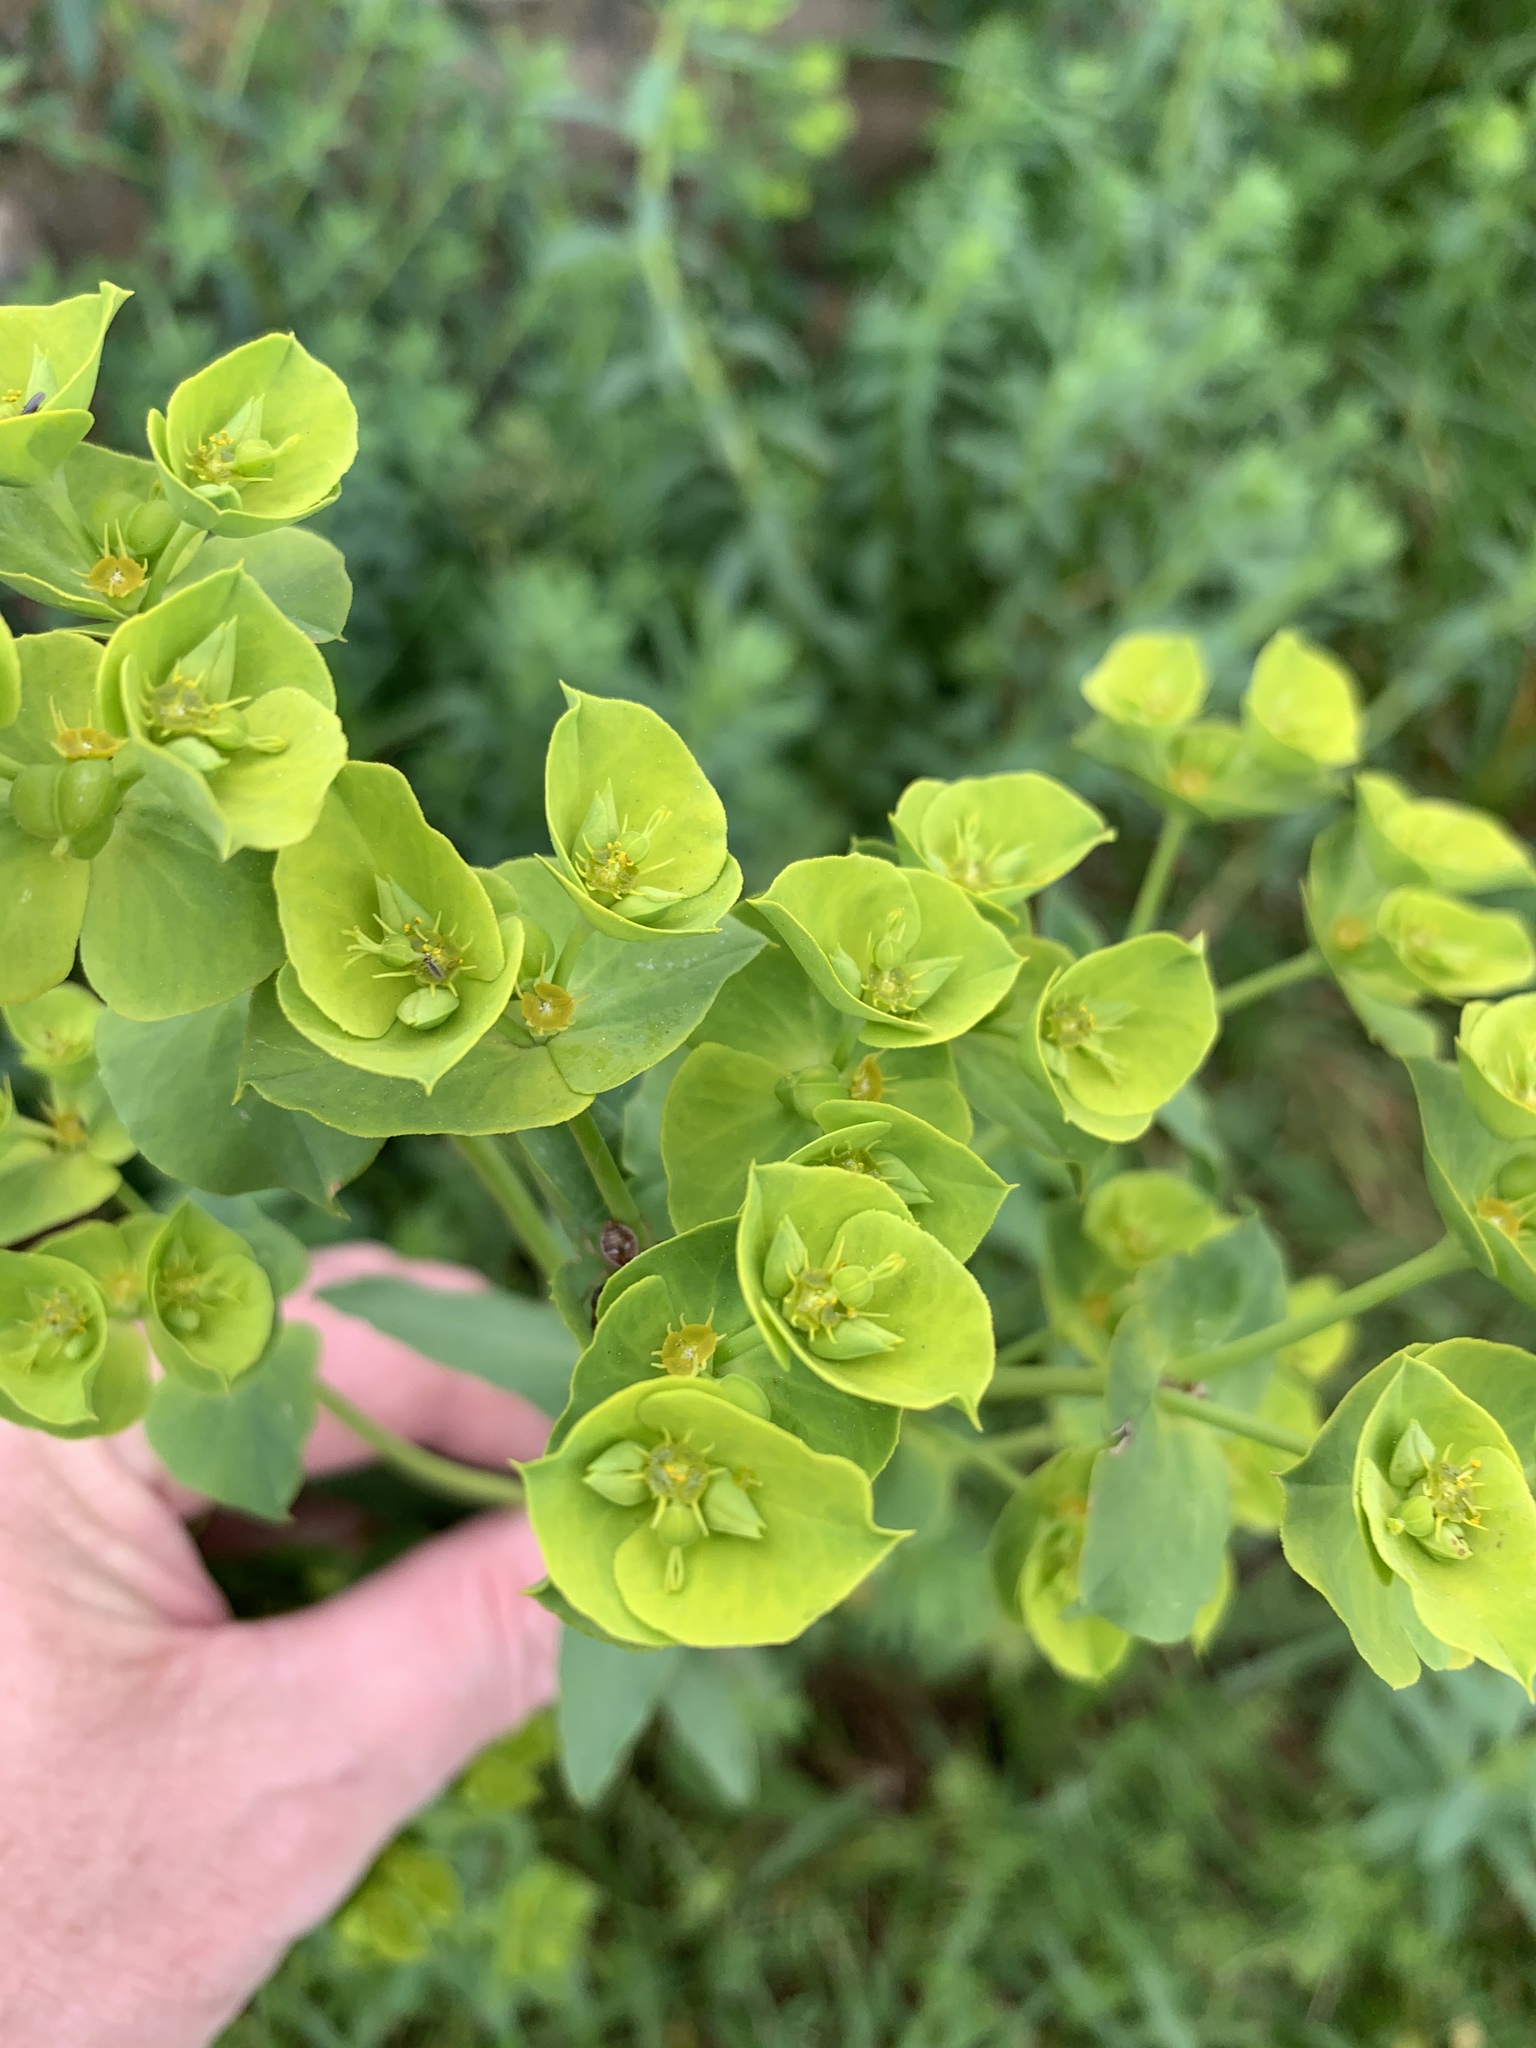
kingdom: Plantae
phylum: Tracheophyta
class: Magnoliopsida
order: Malpighiales
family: Euphorbiaceae
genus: Euphorbia
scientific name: Euphorbia terracina
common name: Geraldton carnation weed
